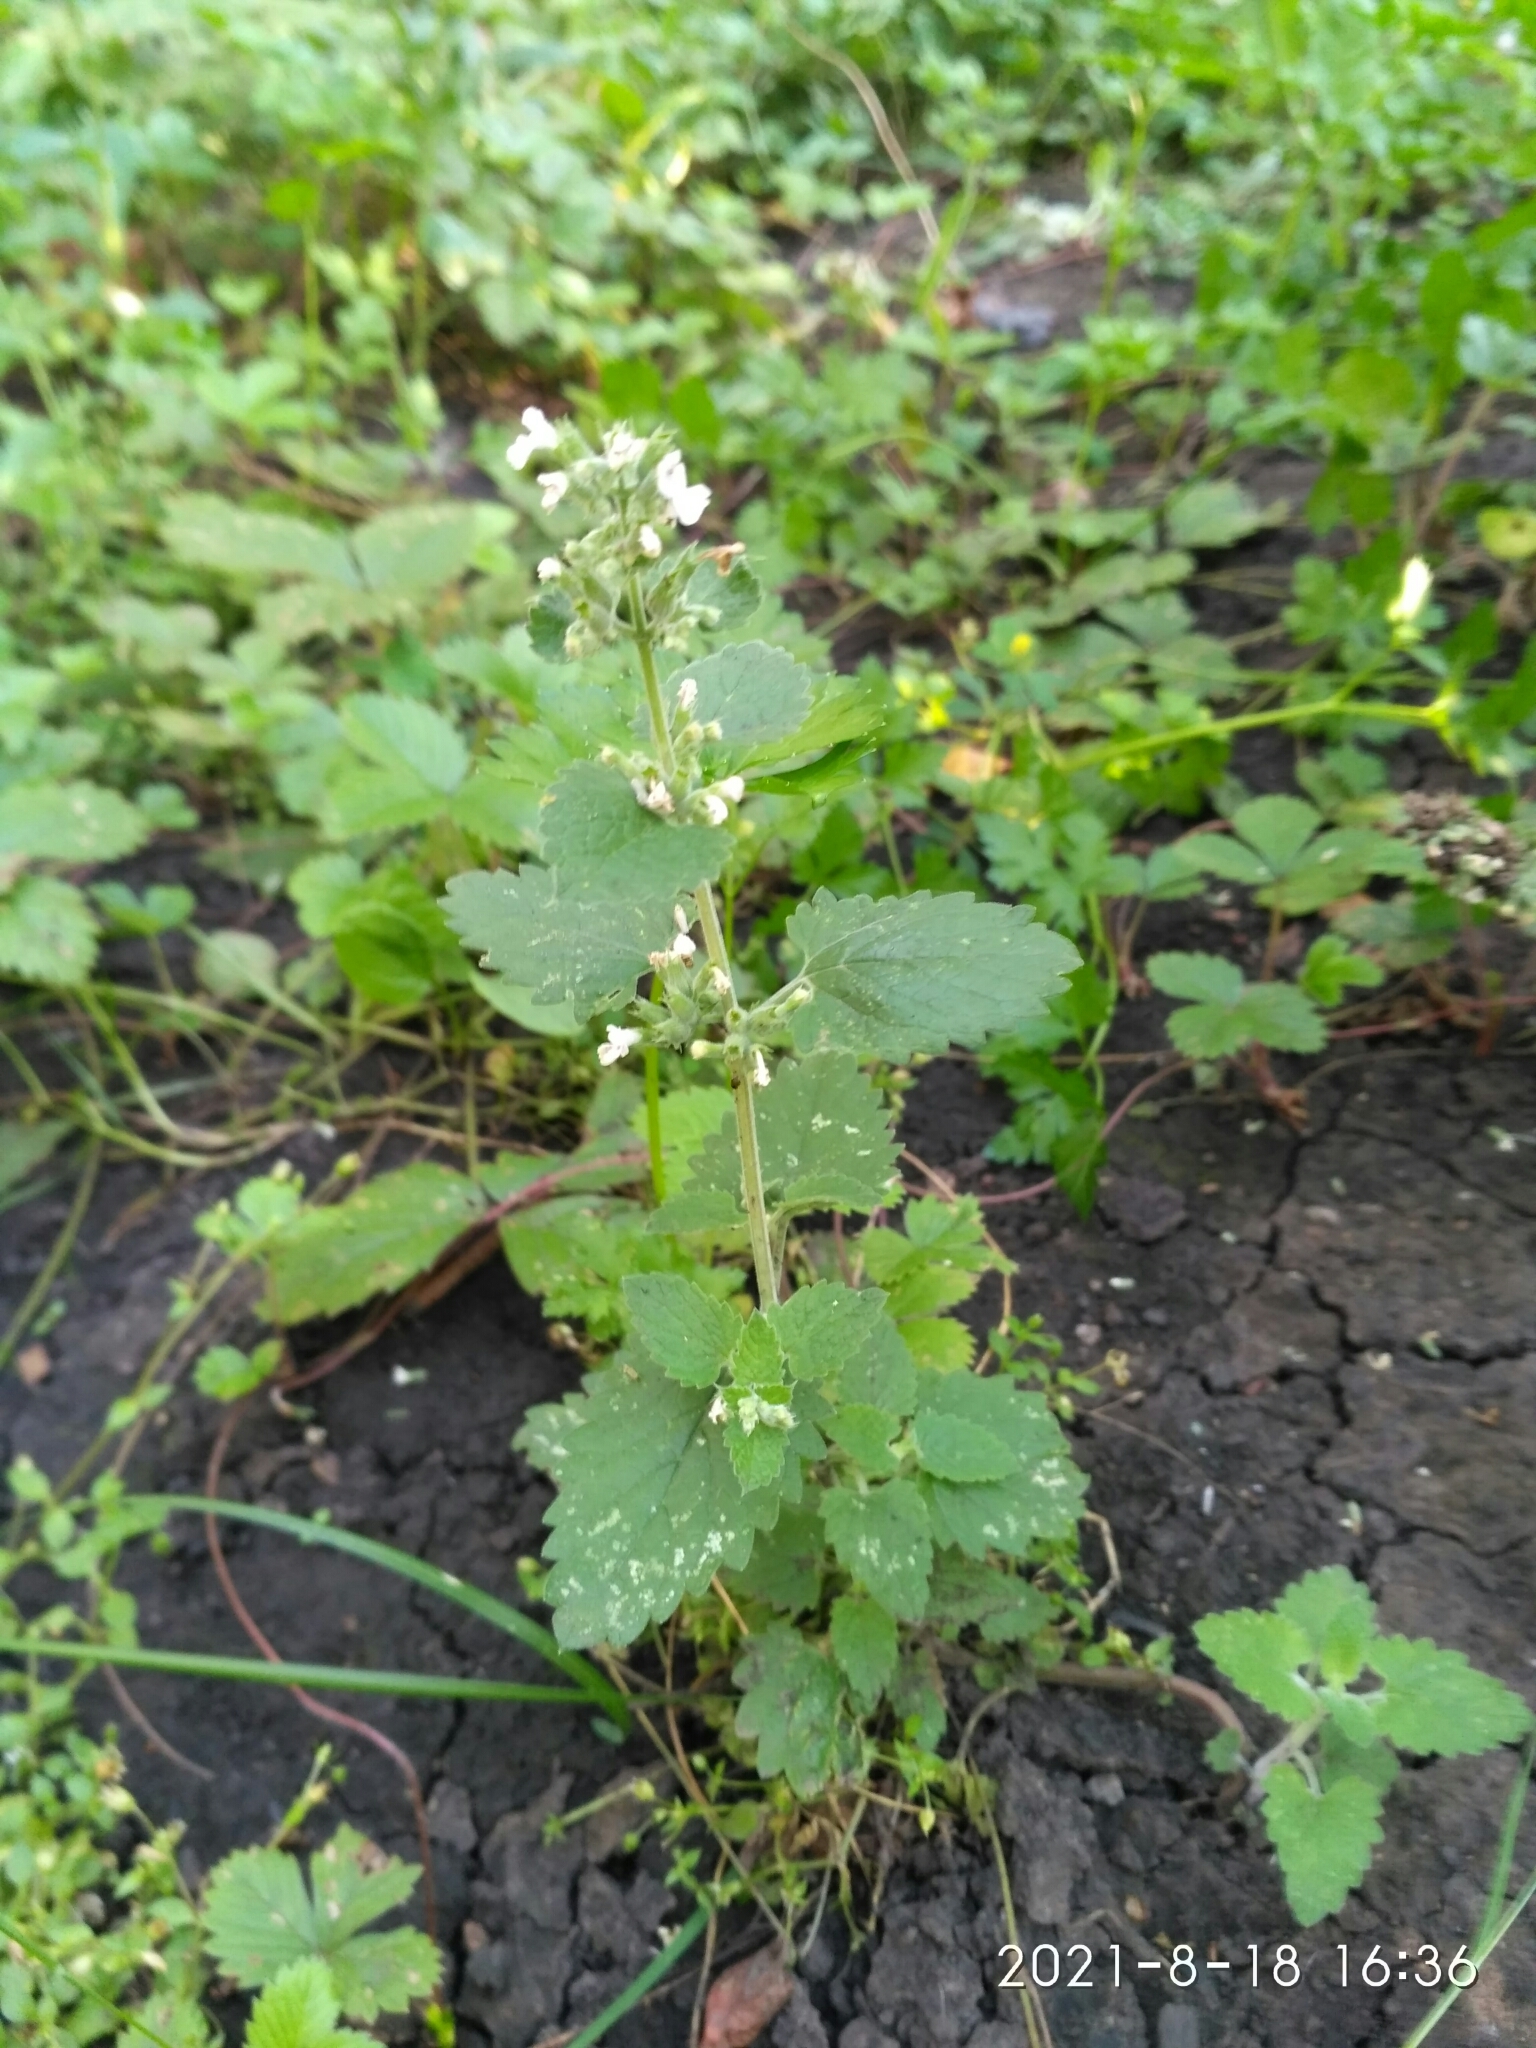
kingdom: Plantae
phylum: Tracheophyta
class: Magnoliopsida
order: Lamiales
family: Lamiaceae
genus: Nepeta
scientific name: Nepeta cataria
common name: Catnip
